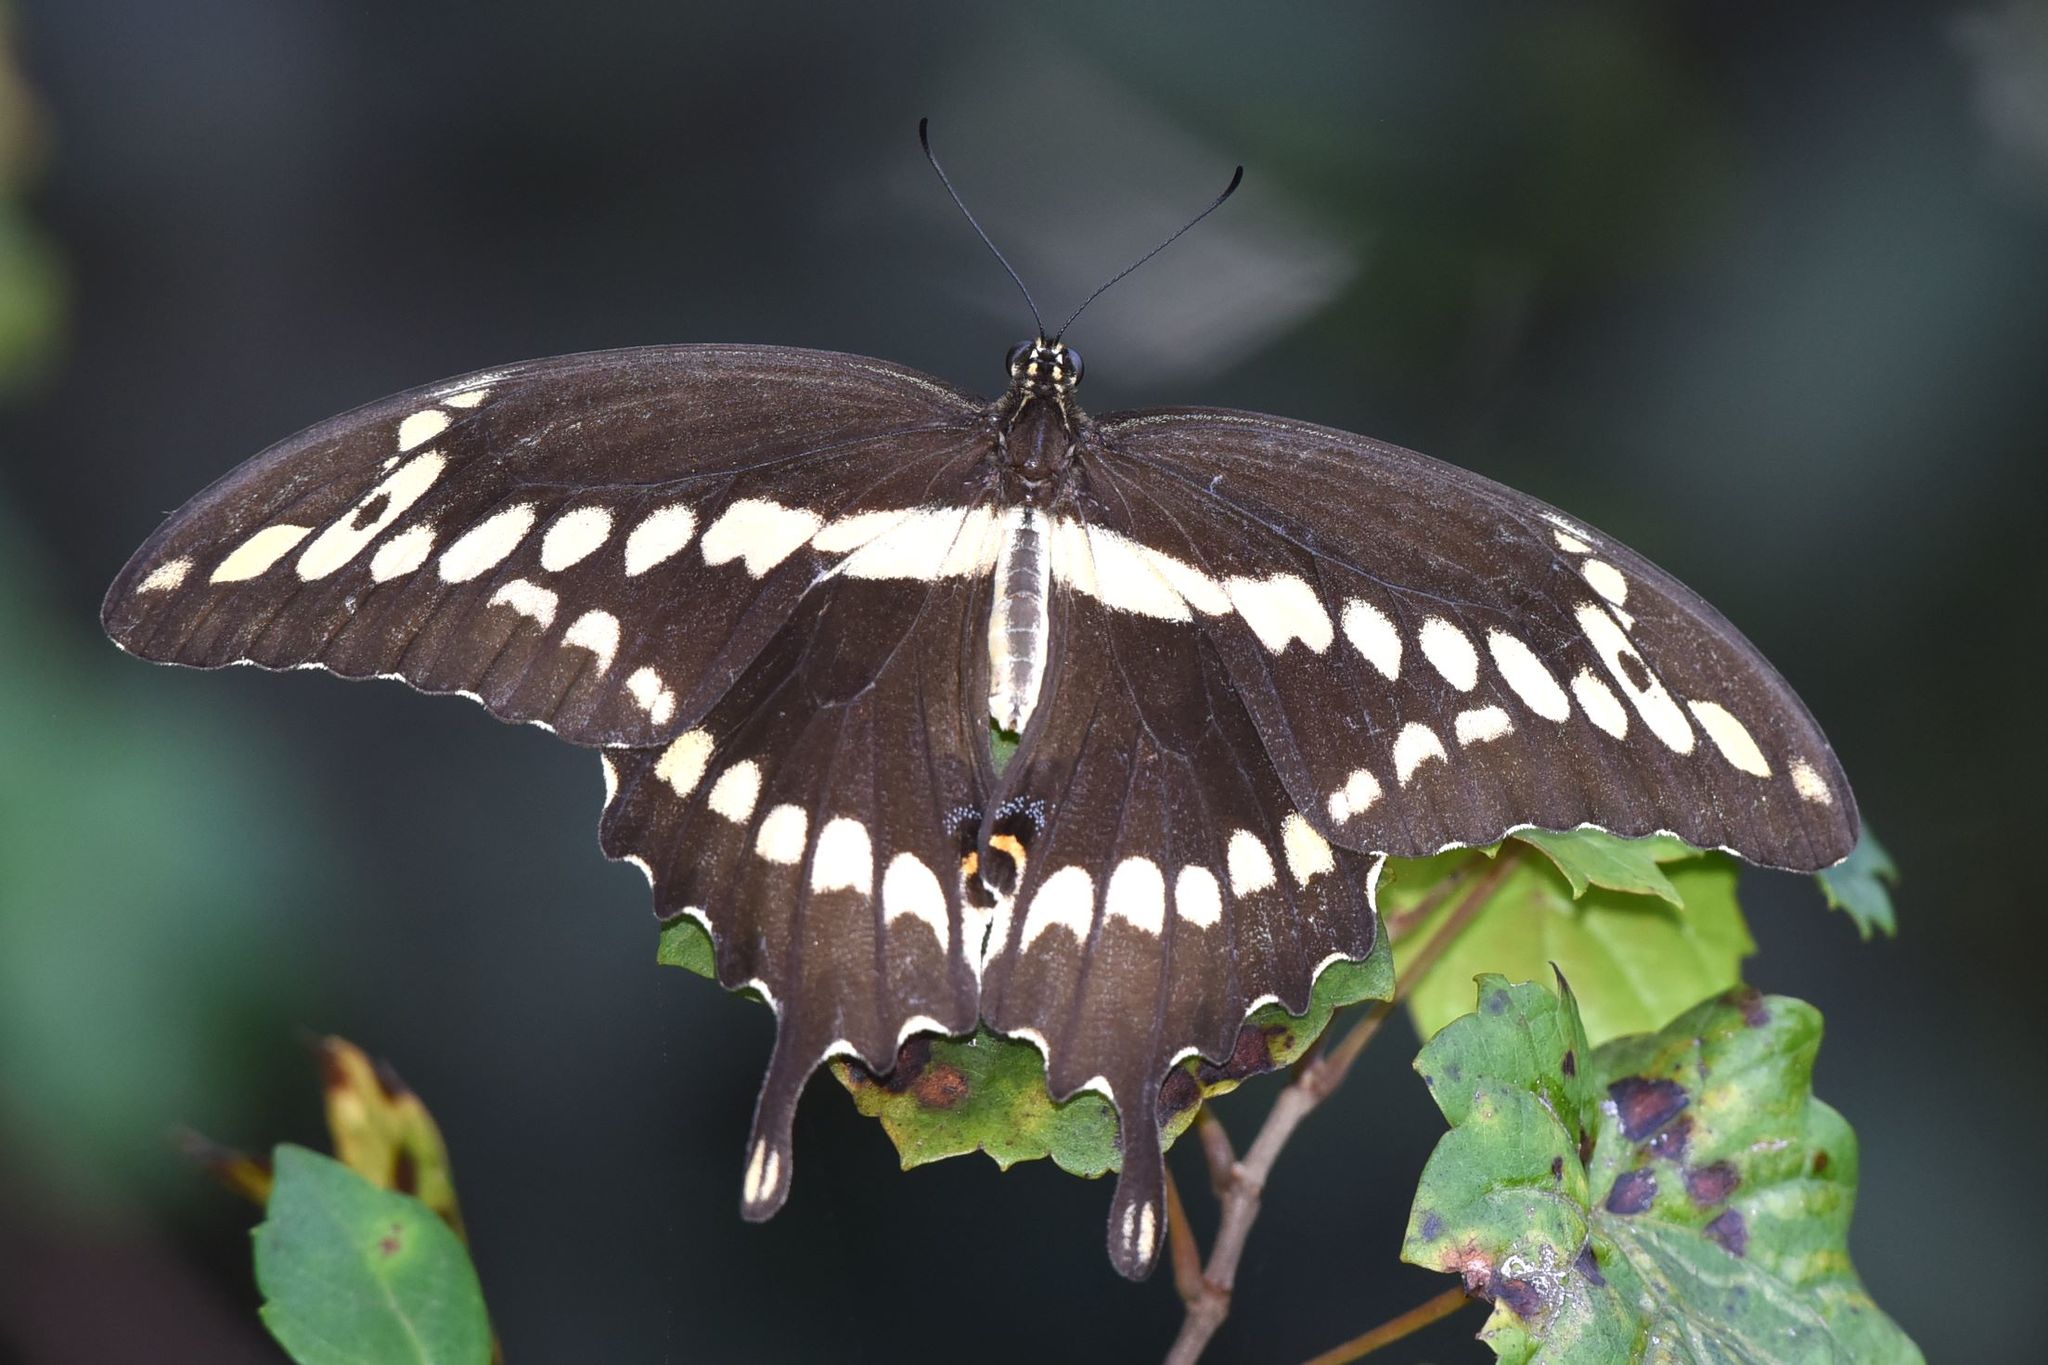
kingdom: Animalia
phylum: Arthropoda
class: Insecta
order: Lepidoptera
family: Papilionidae
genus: Papilio
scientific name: Papilio cresphontes
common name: Giant swallowtail
